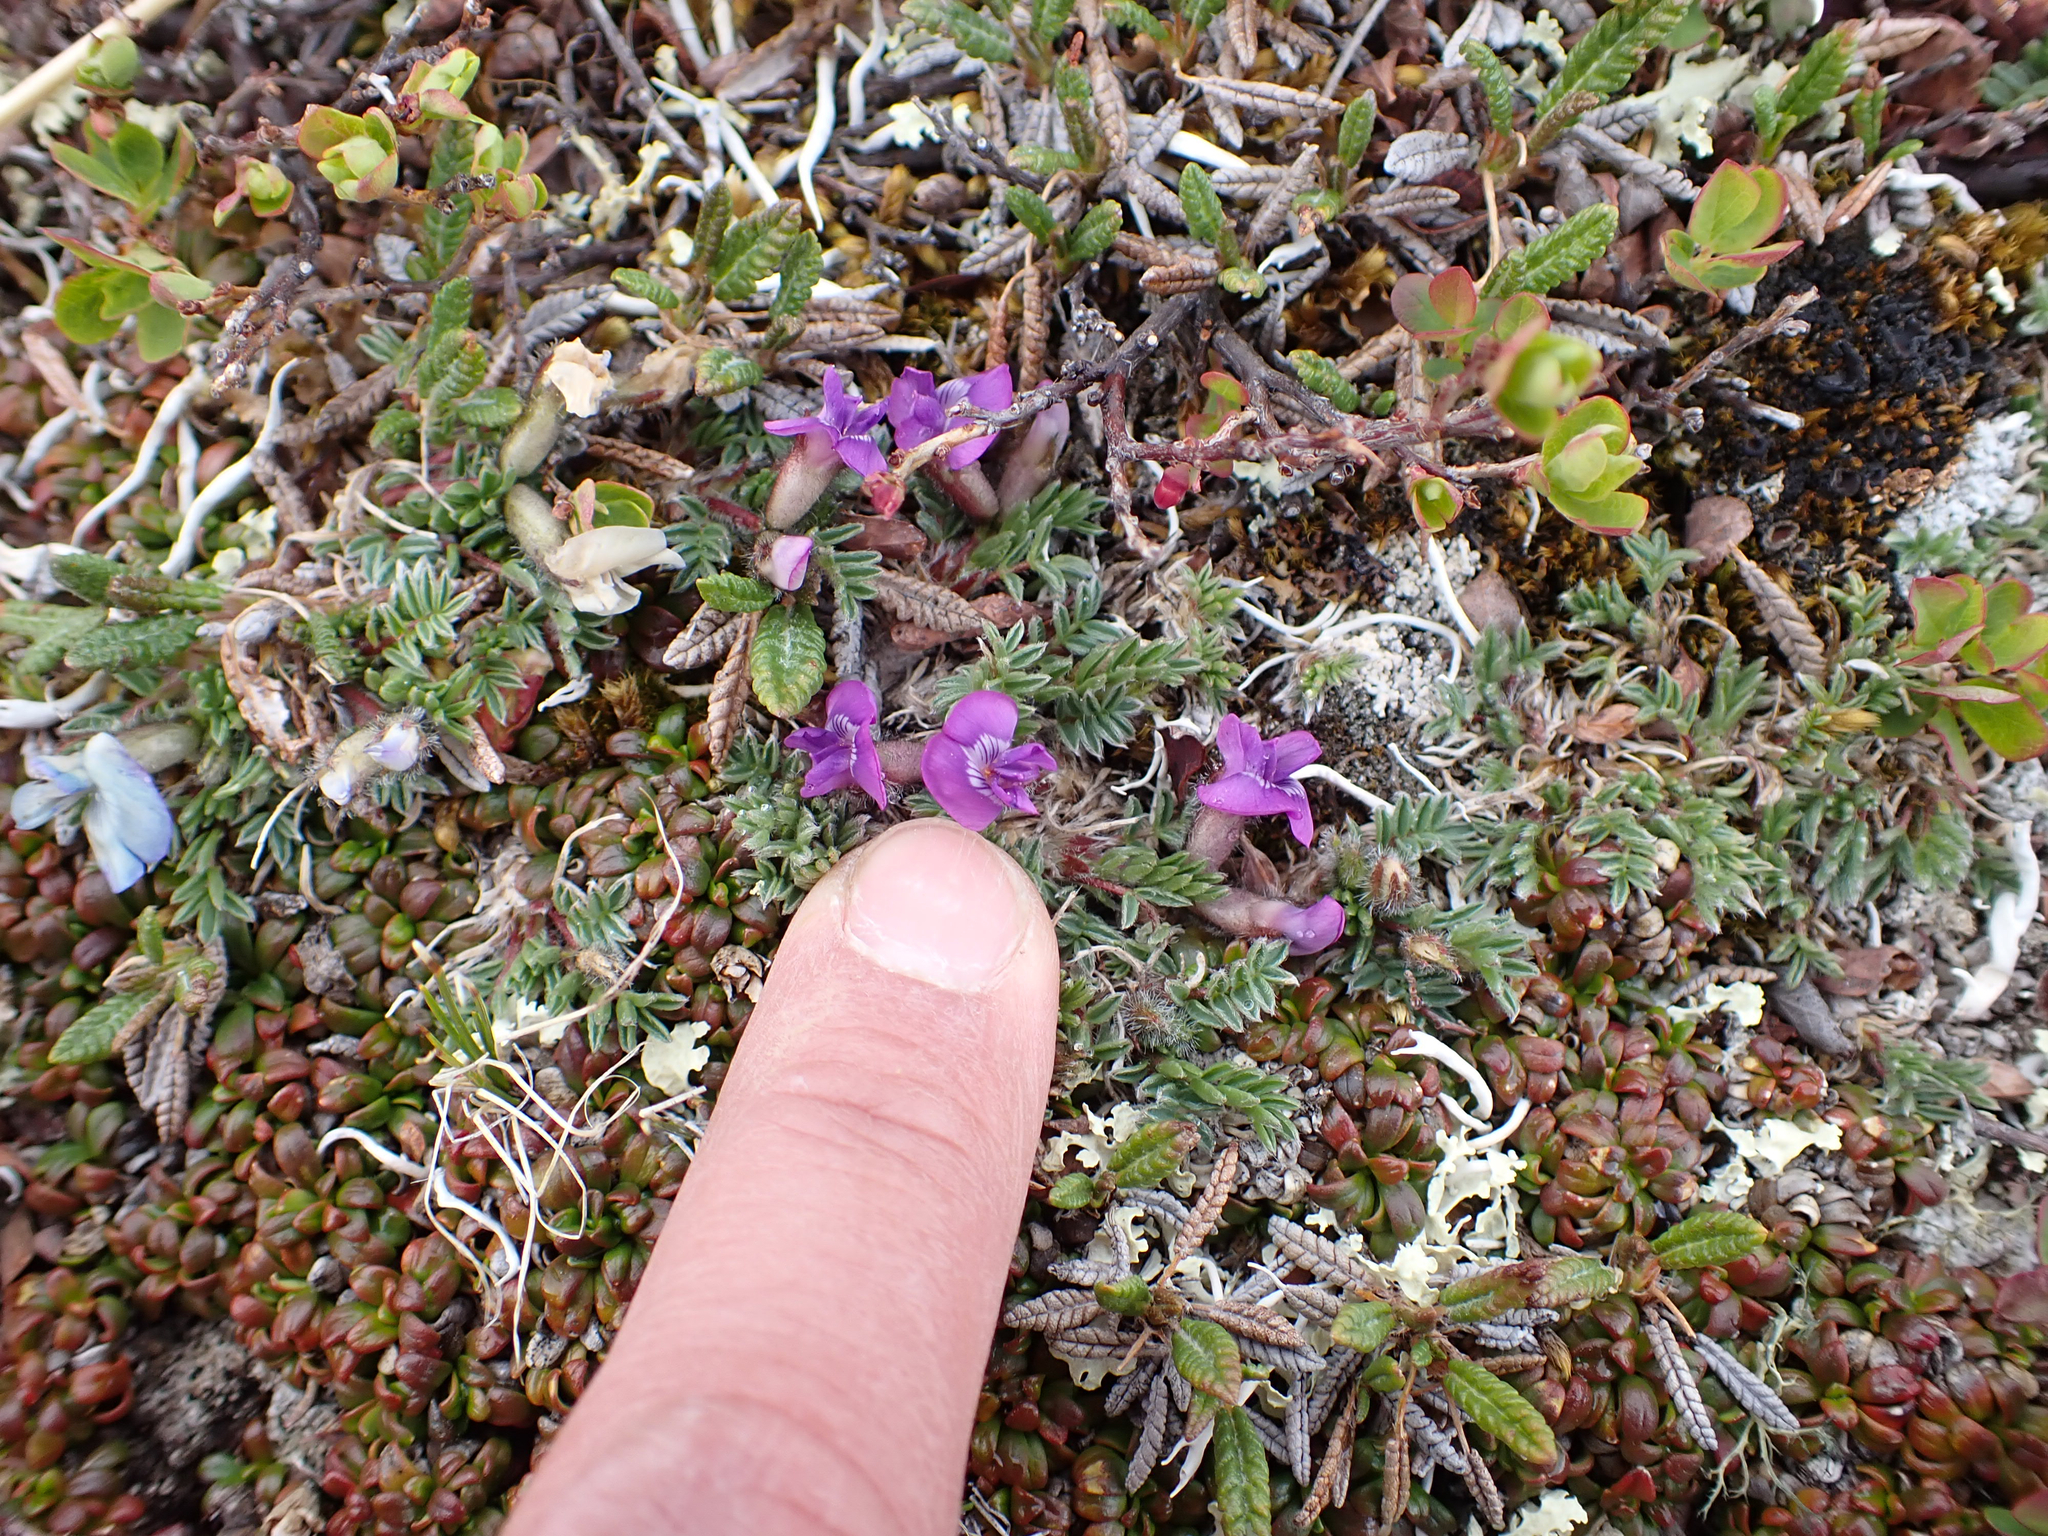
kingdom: Plantae
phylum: Tracheophyta
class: Magnoliopsida
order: Fabales
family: Fabaceae
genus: Oxytropis
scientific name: Oxytropis nigrescens
